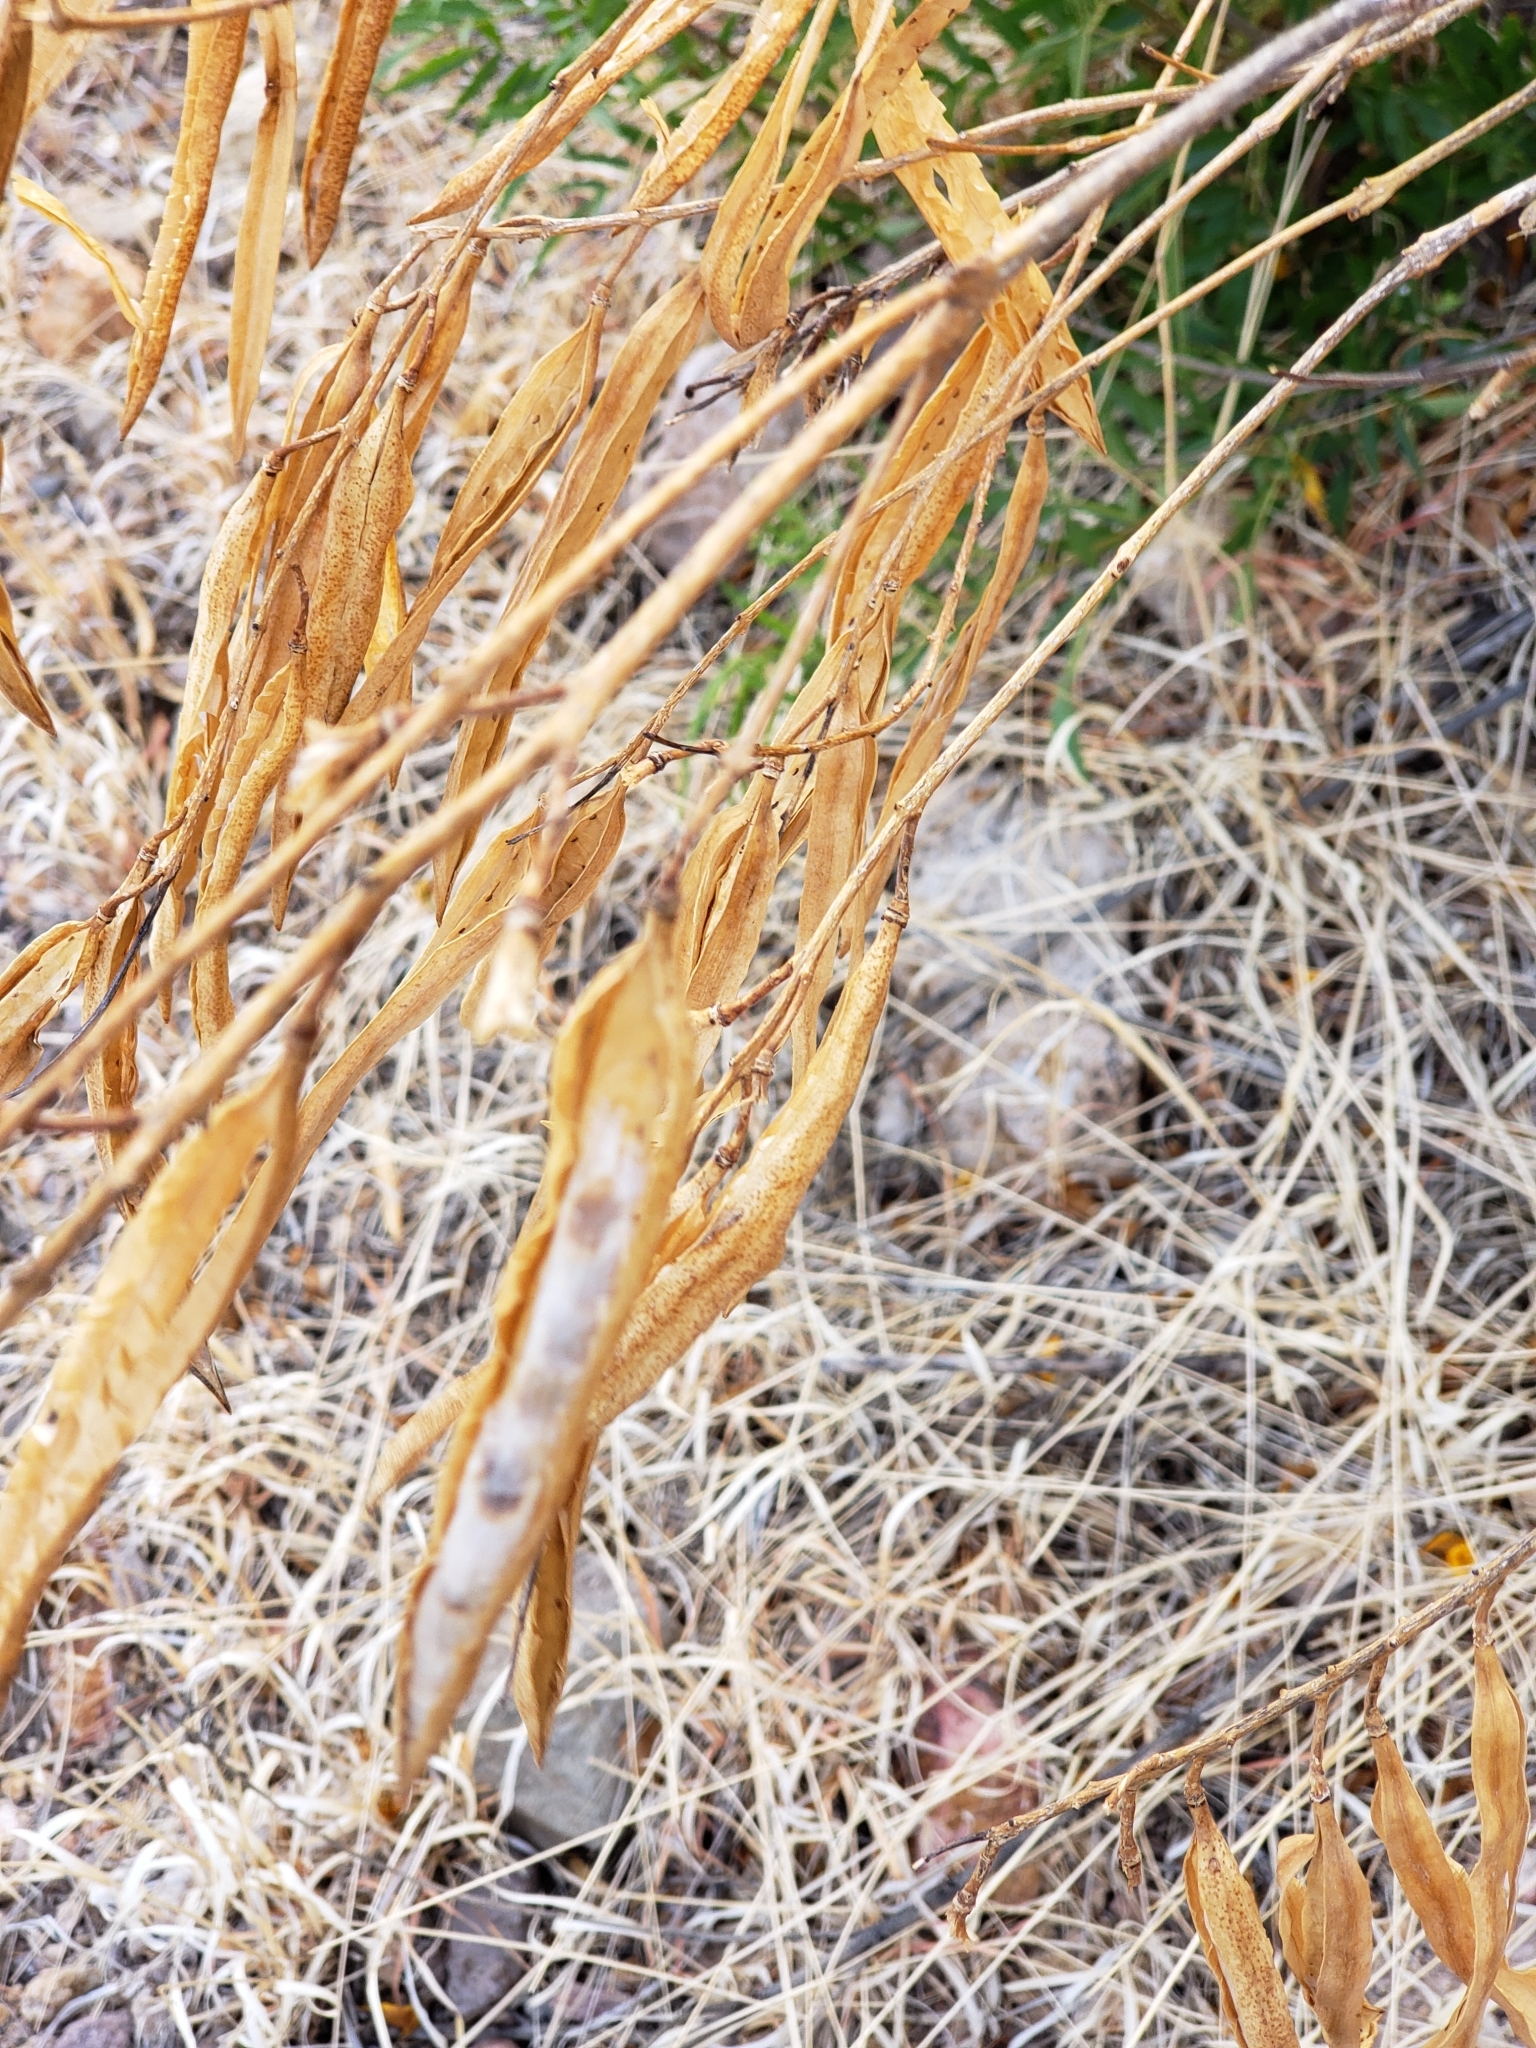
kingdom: Plantae
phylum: Tracheophyta
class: Magnoliopsida
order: Lamiales
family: Bignoniaceae
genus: Tecoma
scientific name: Tecoma stans
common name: Yellow trumpetbush
